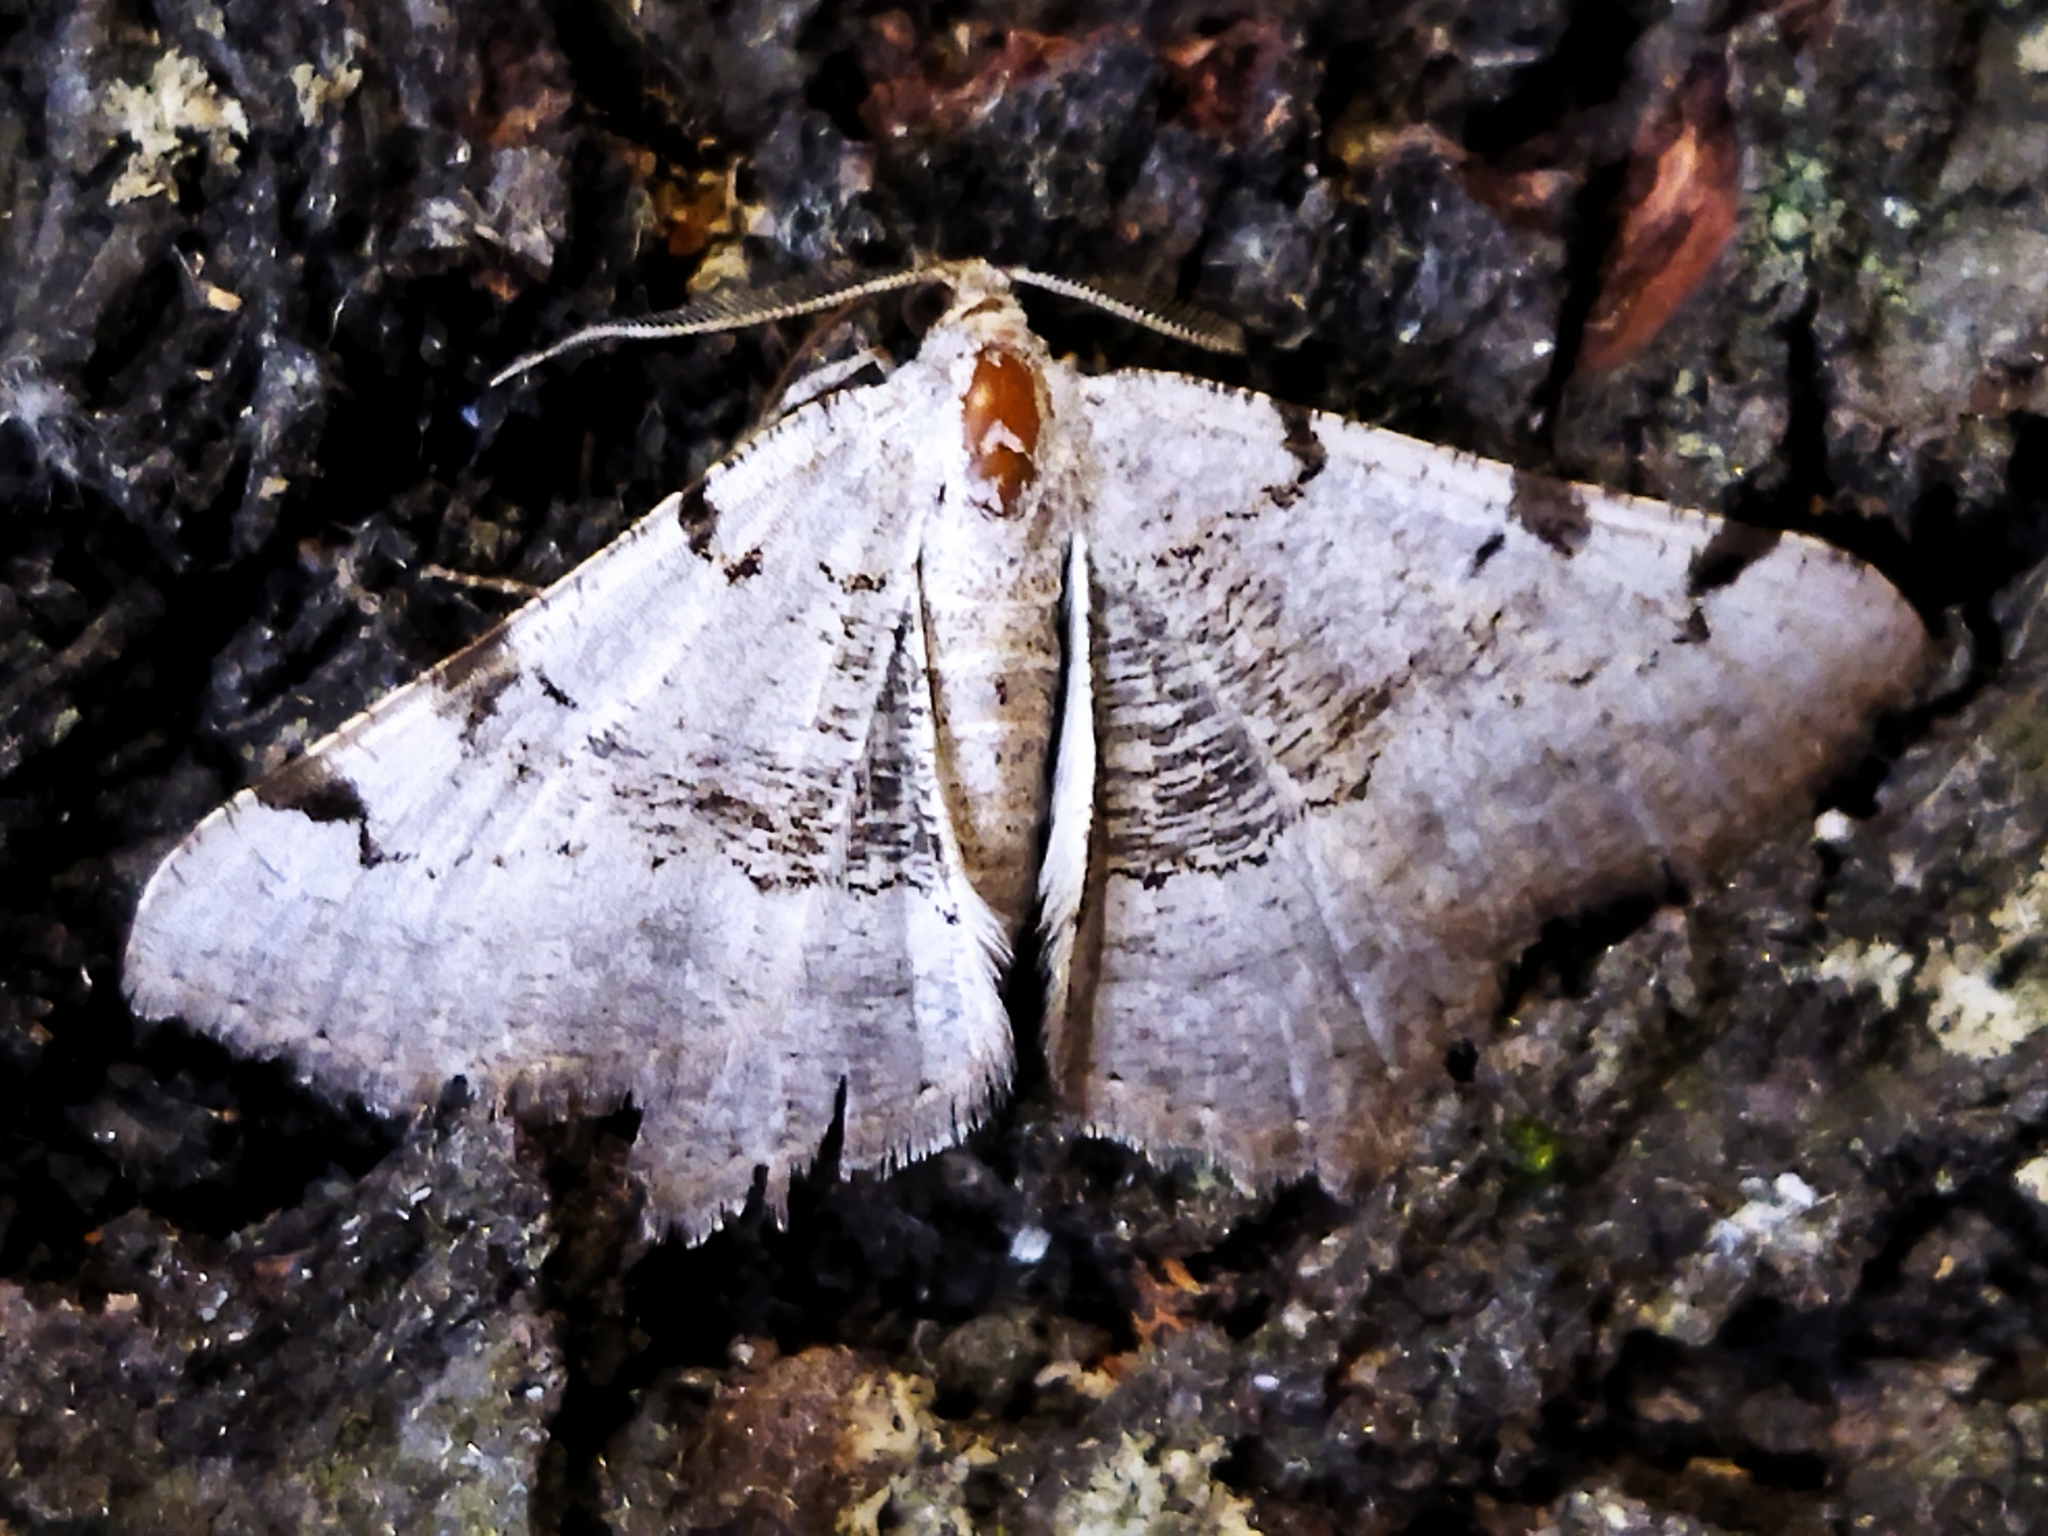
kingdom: Animalia
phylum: Arthropoda
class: Insecta
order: Lepidoptera
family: Geometridae
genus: Neognopharmia
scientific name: Neognopharmia stevenaria
